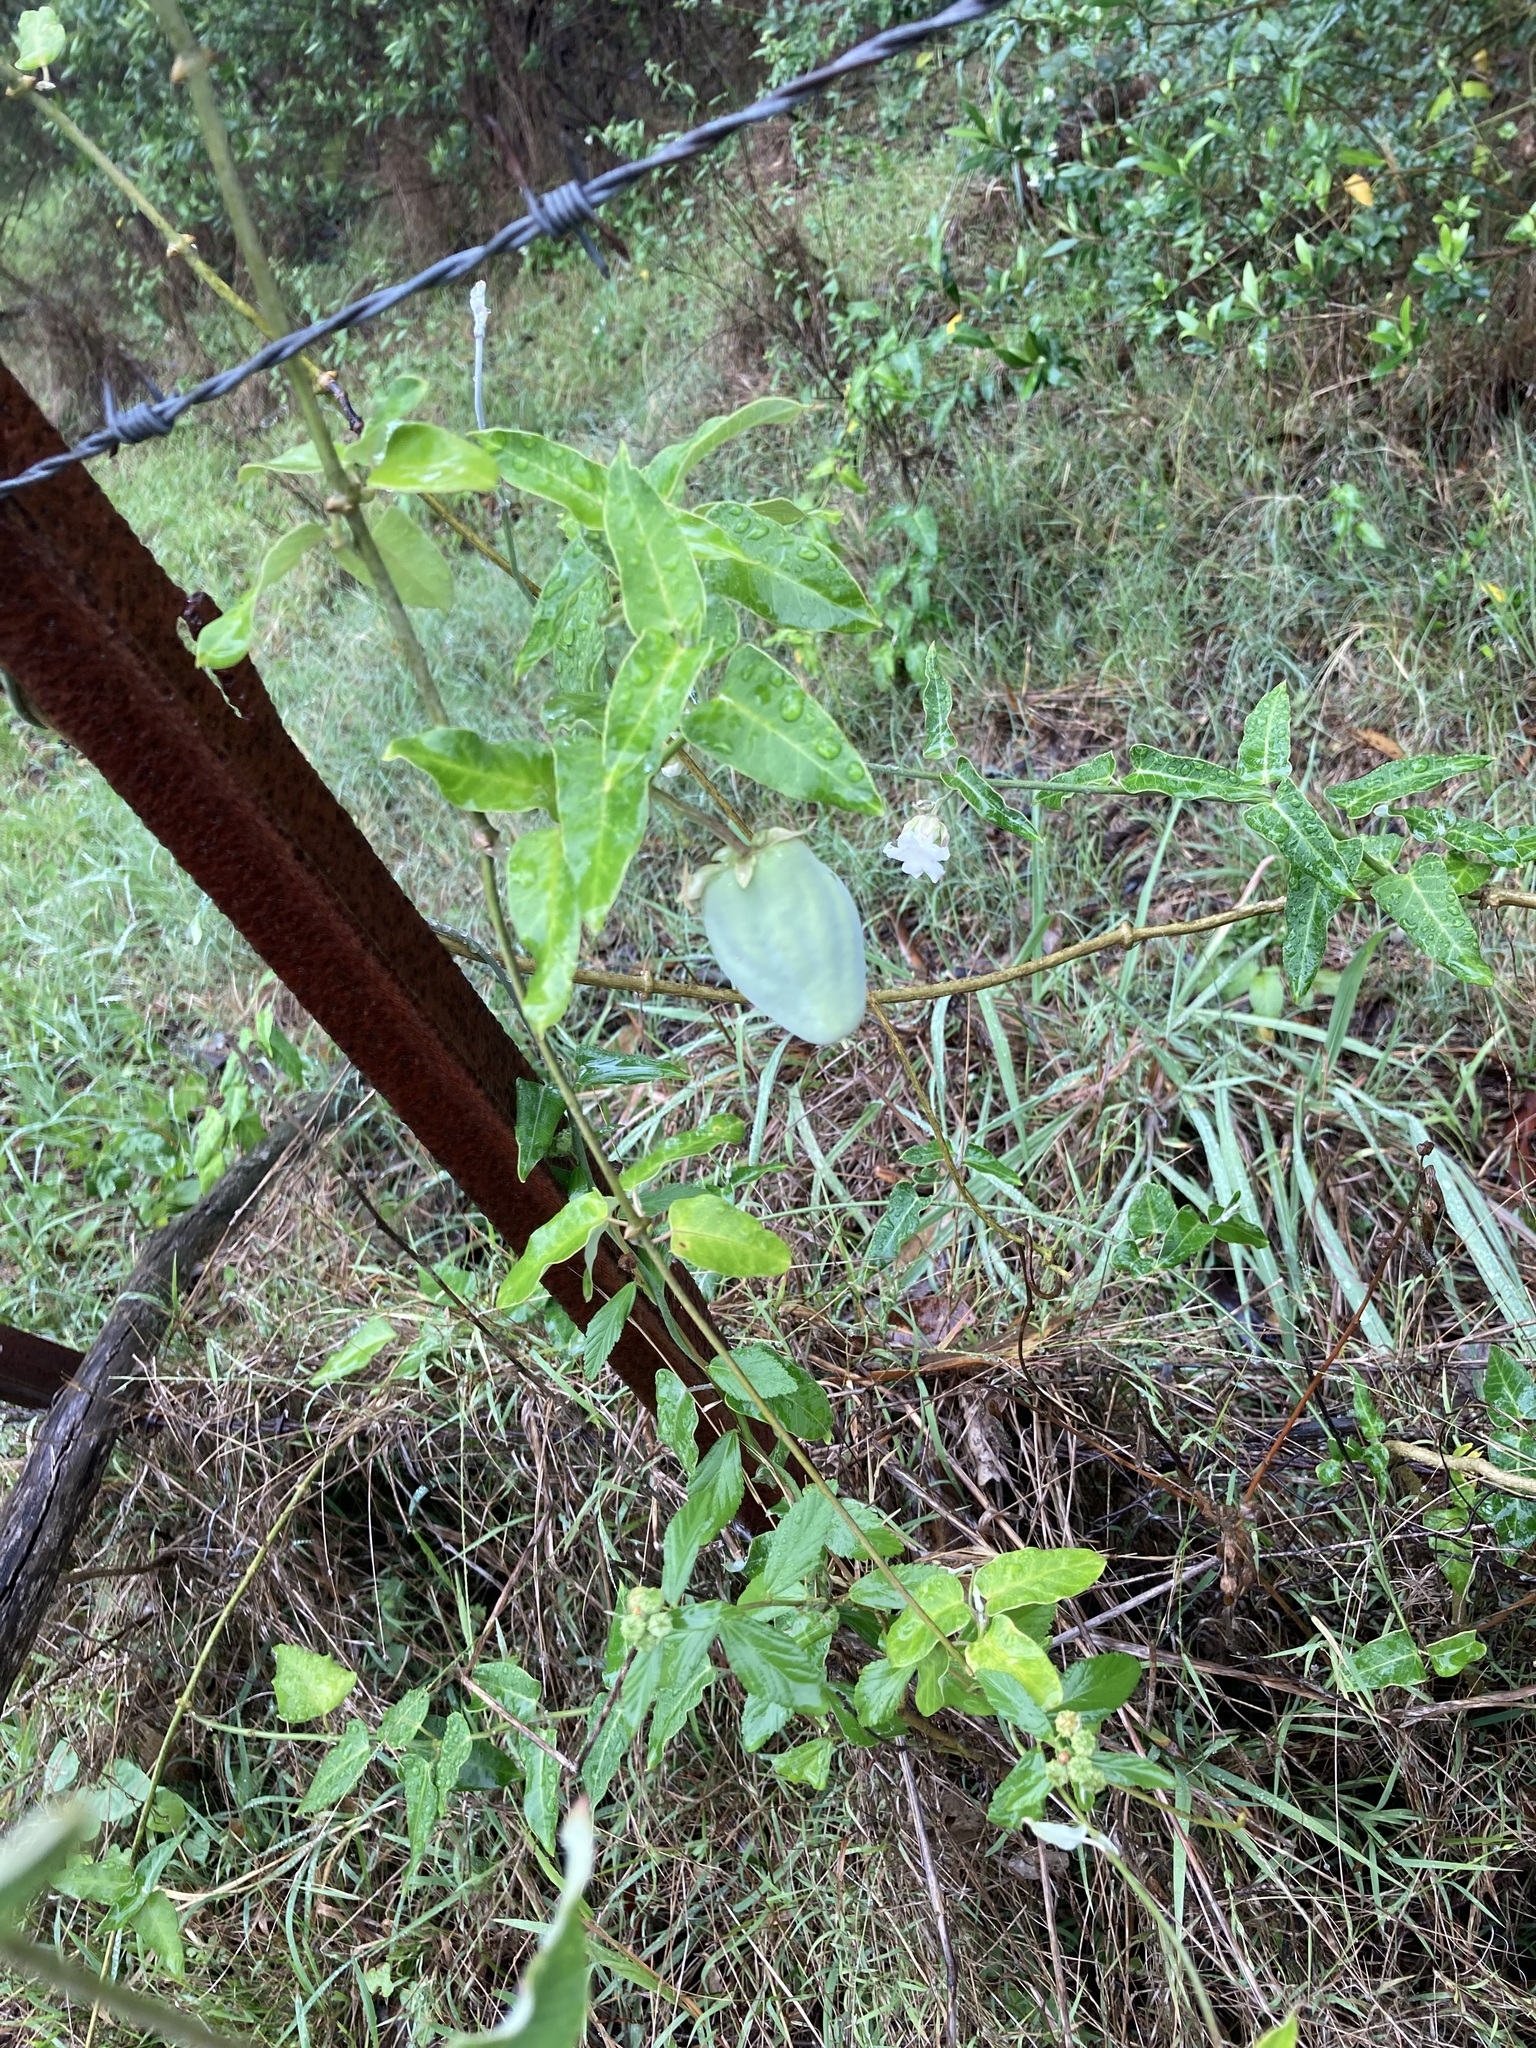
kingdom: Plantae
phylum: Tracheophyta
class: Magnoliopsida
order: Gentianales
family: Apocynaceae
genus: Araujia
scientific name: Araujia sericifera
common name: White bladderflower
